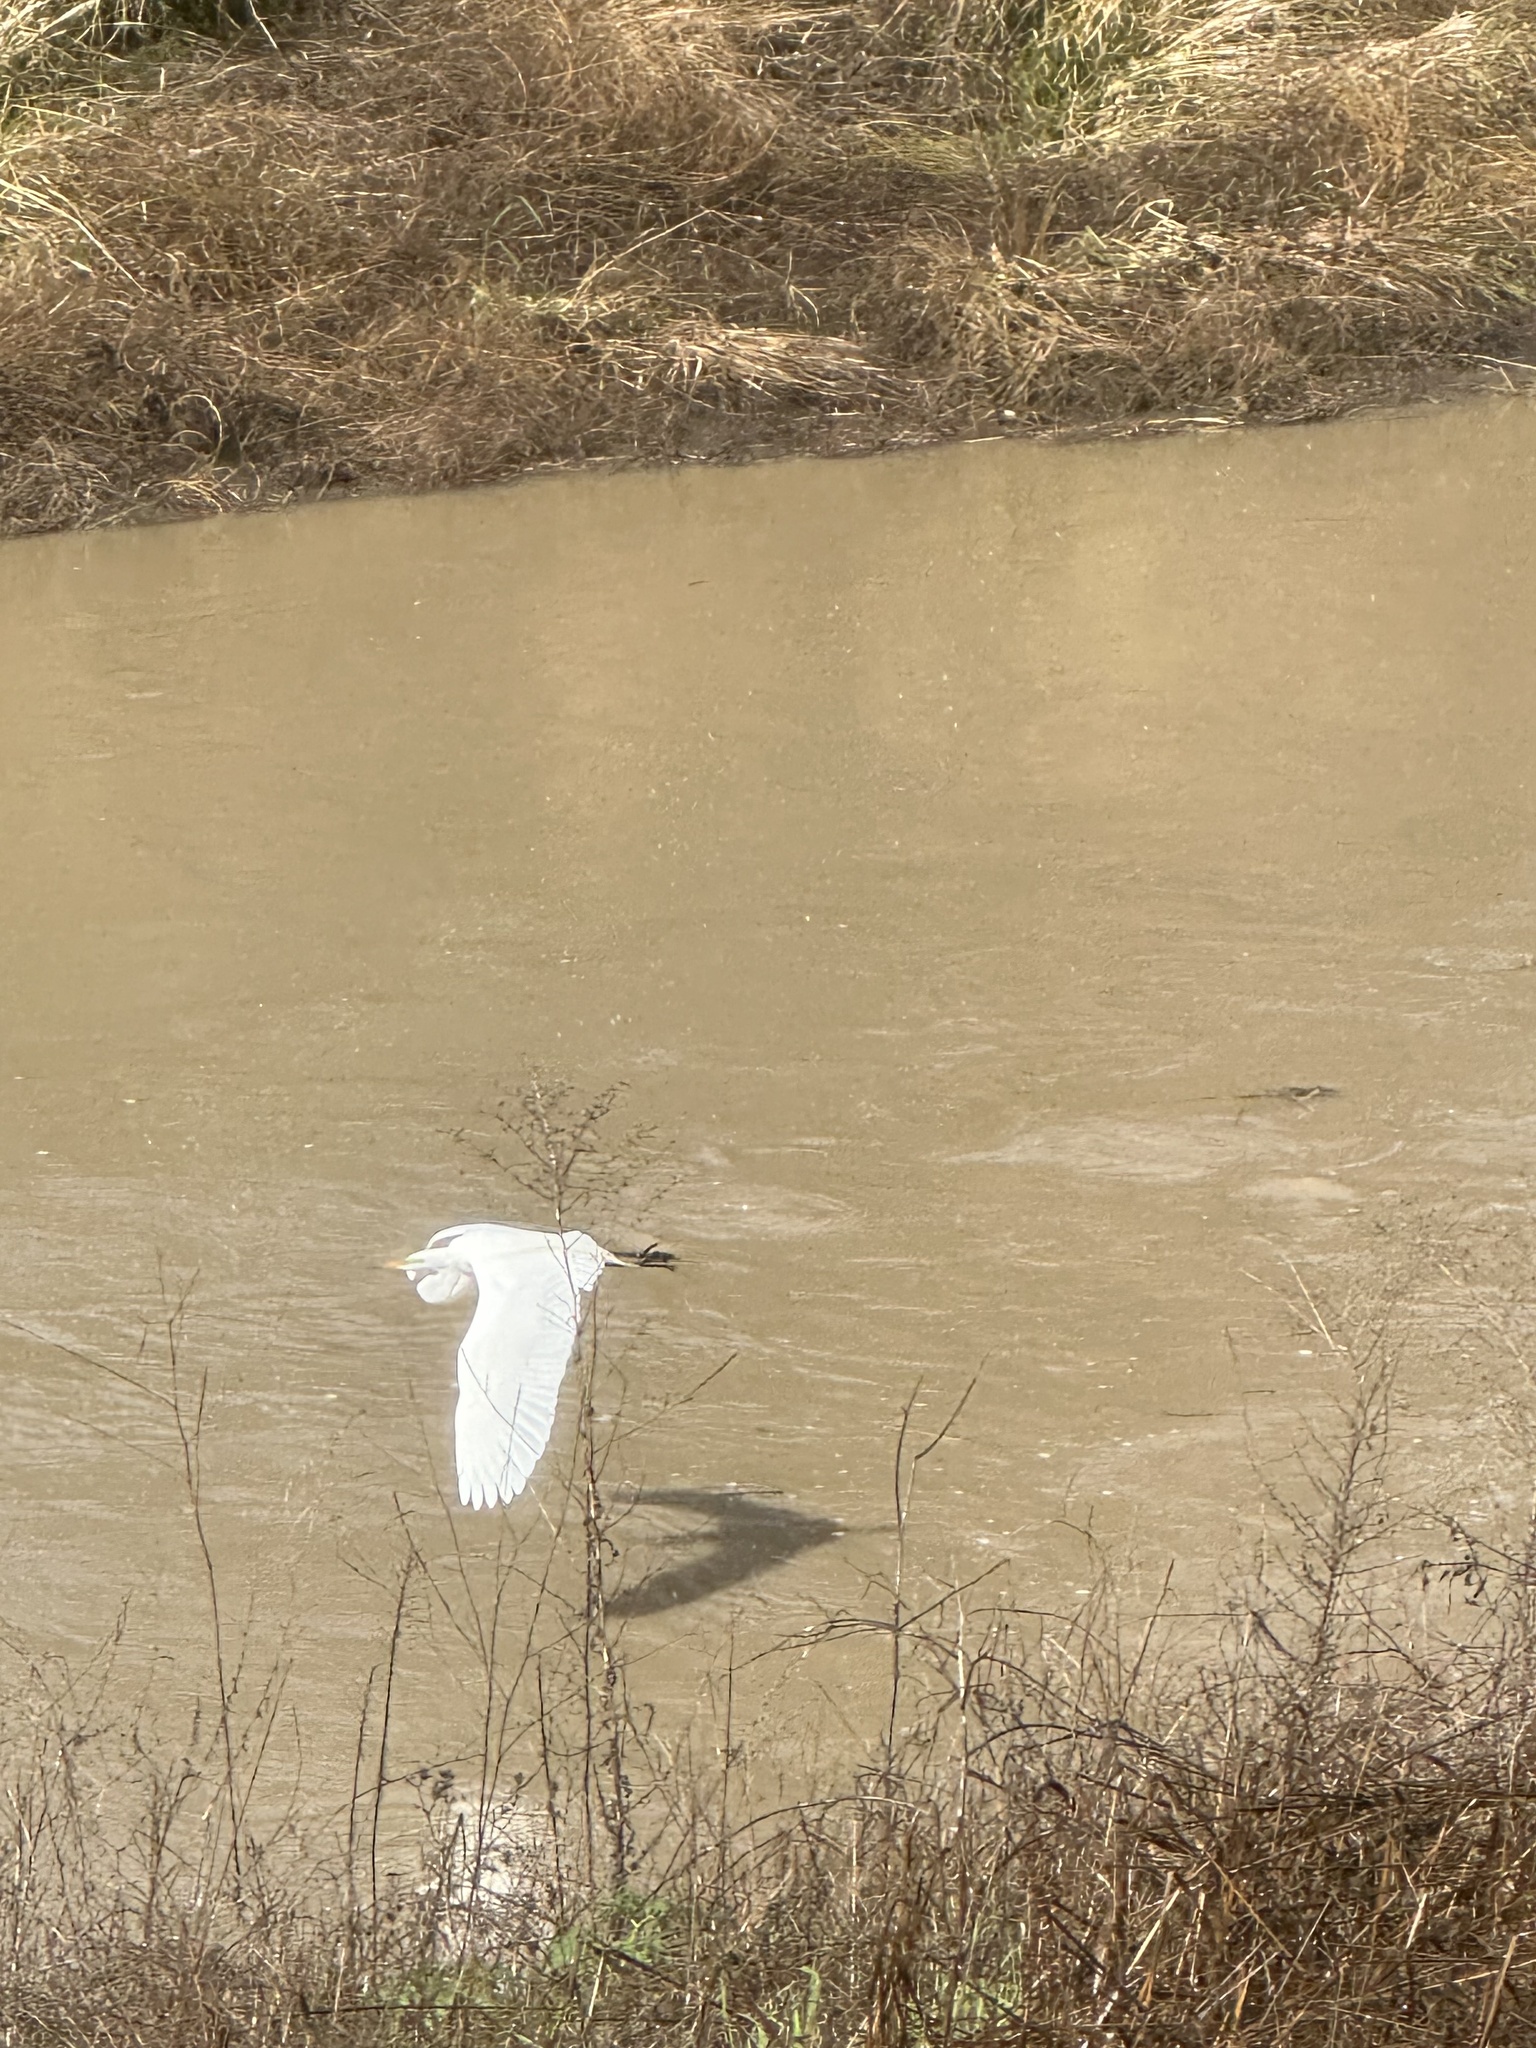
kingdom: Animalia
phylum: Chordata
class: Aves
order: Pelecaniformes
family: Ardeidae
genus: Ardea
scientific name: Ardea alba
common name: Great egret
